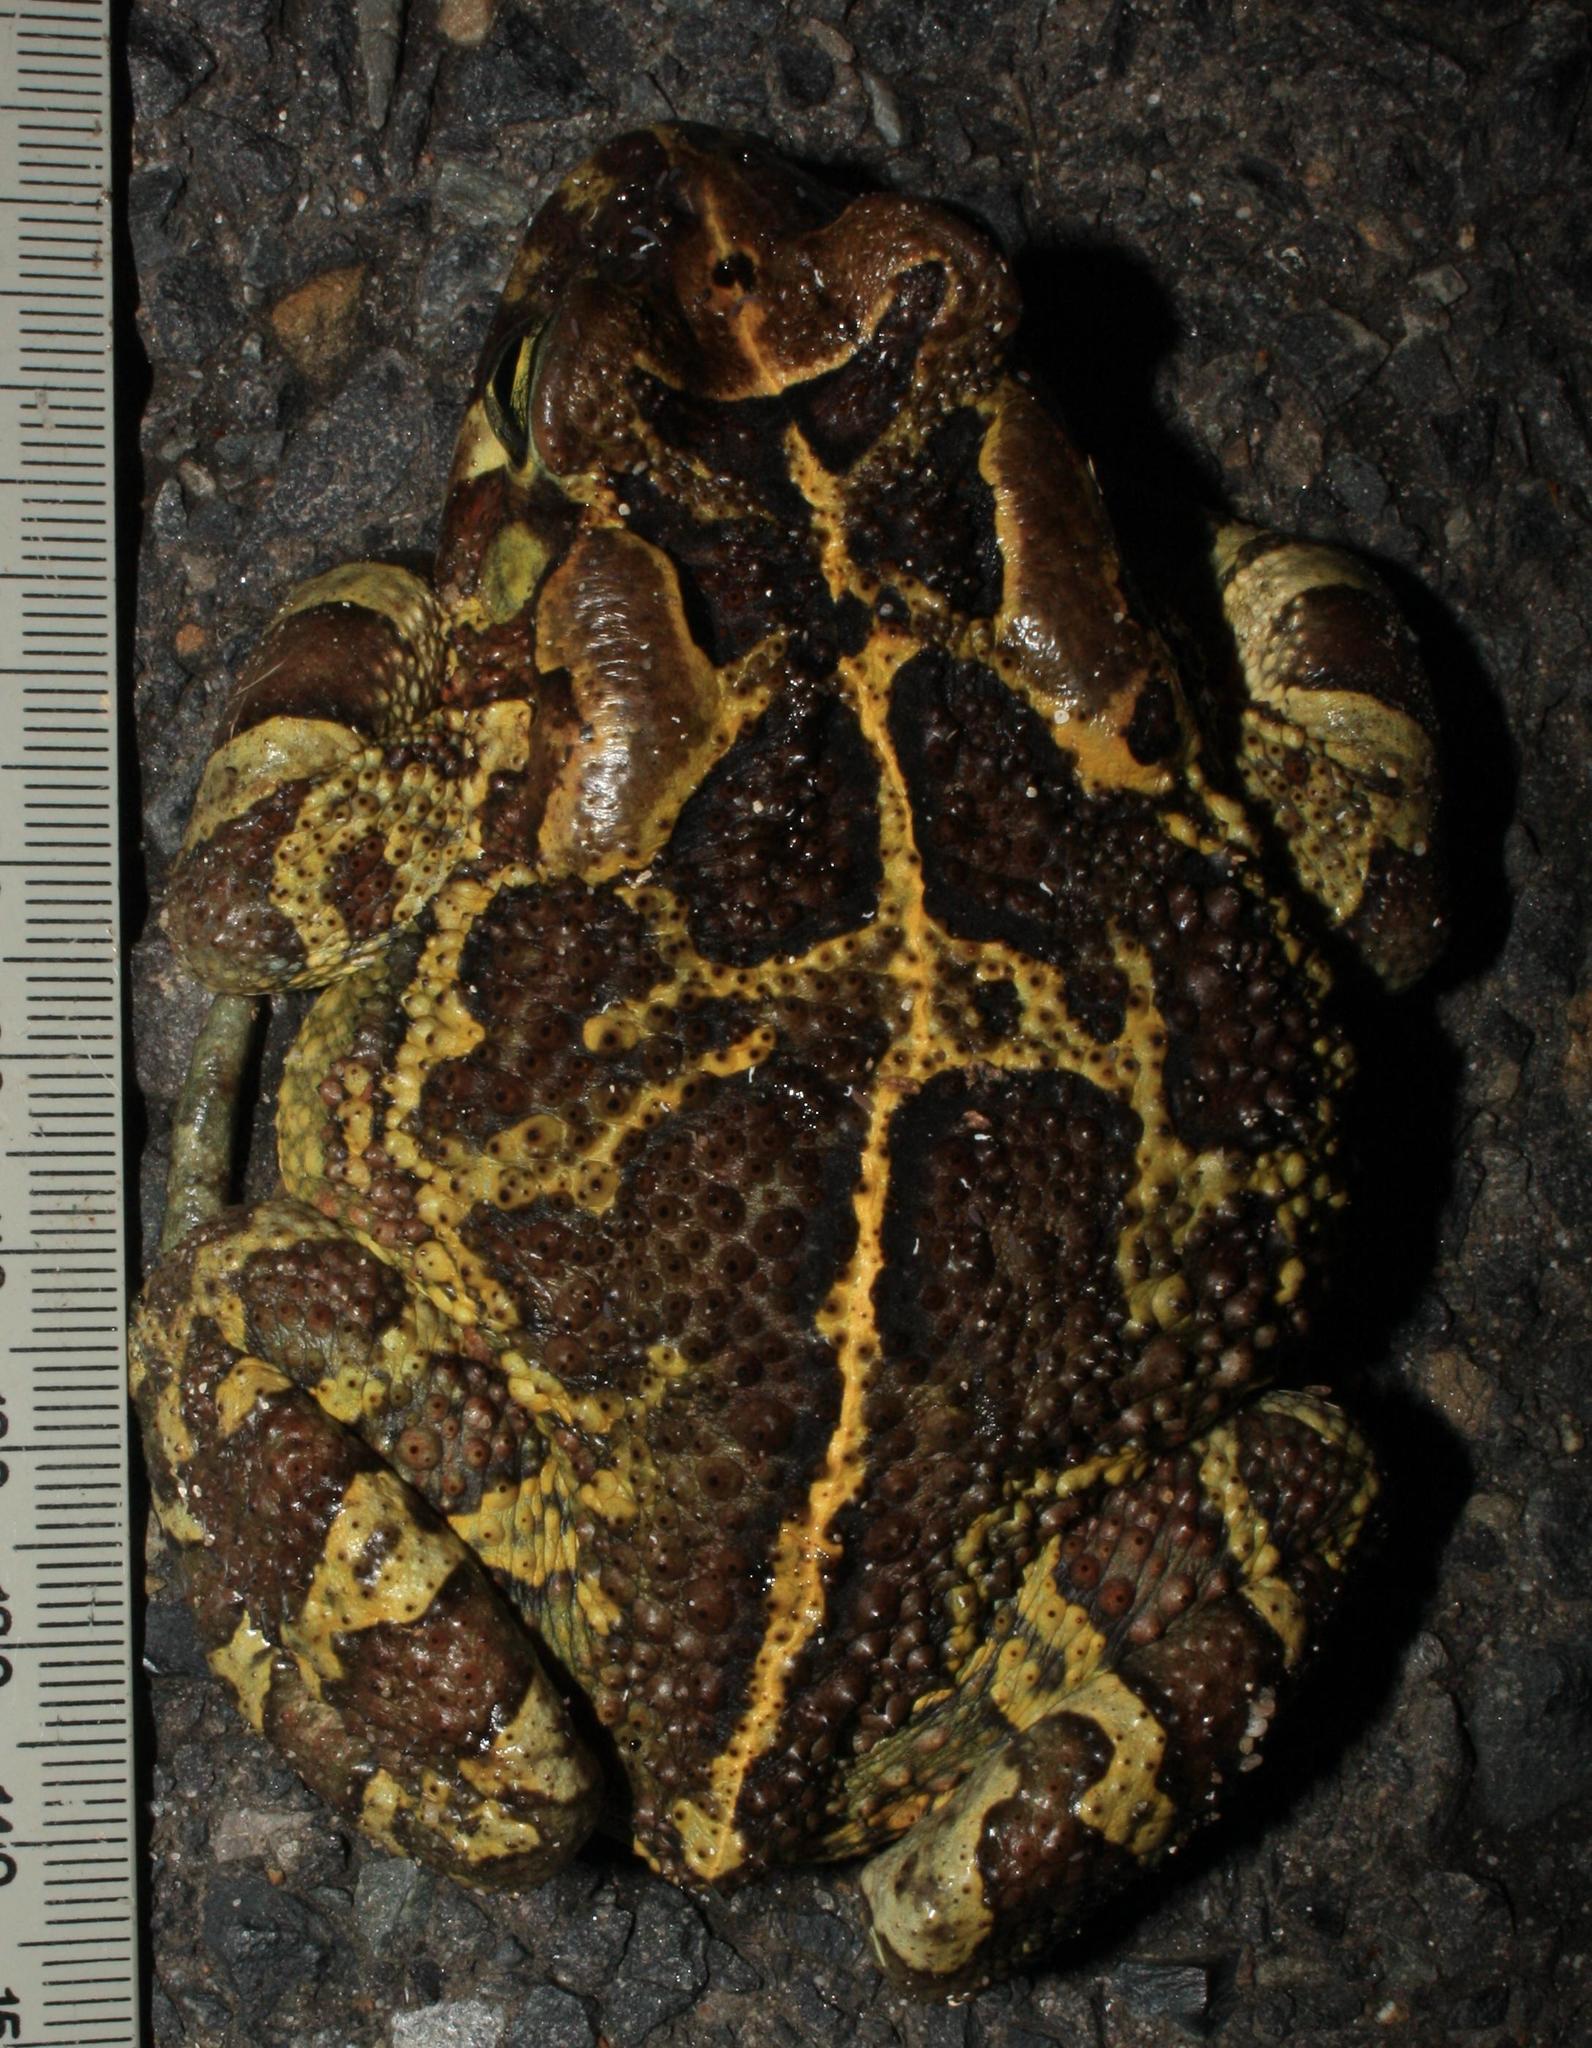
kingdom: Animalia
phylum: Chordata
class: Amphibia
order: Anura
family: Bufonidae
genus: Sclerophrys
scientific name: Sclerophrys pantherina
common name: Panther toad
